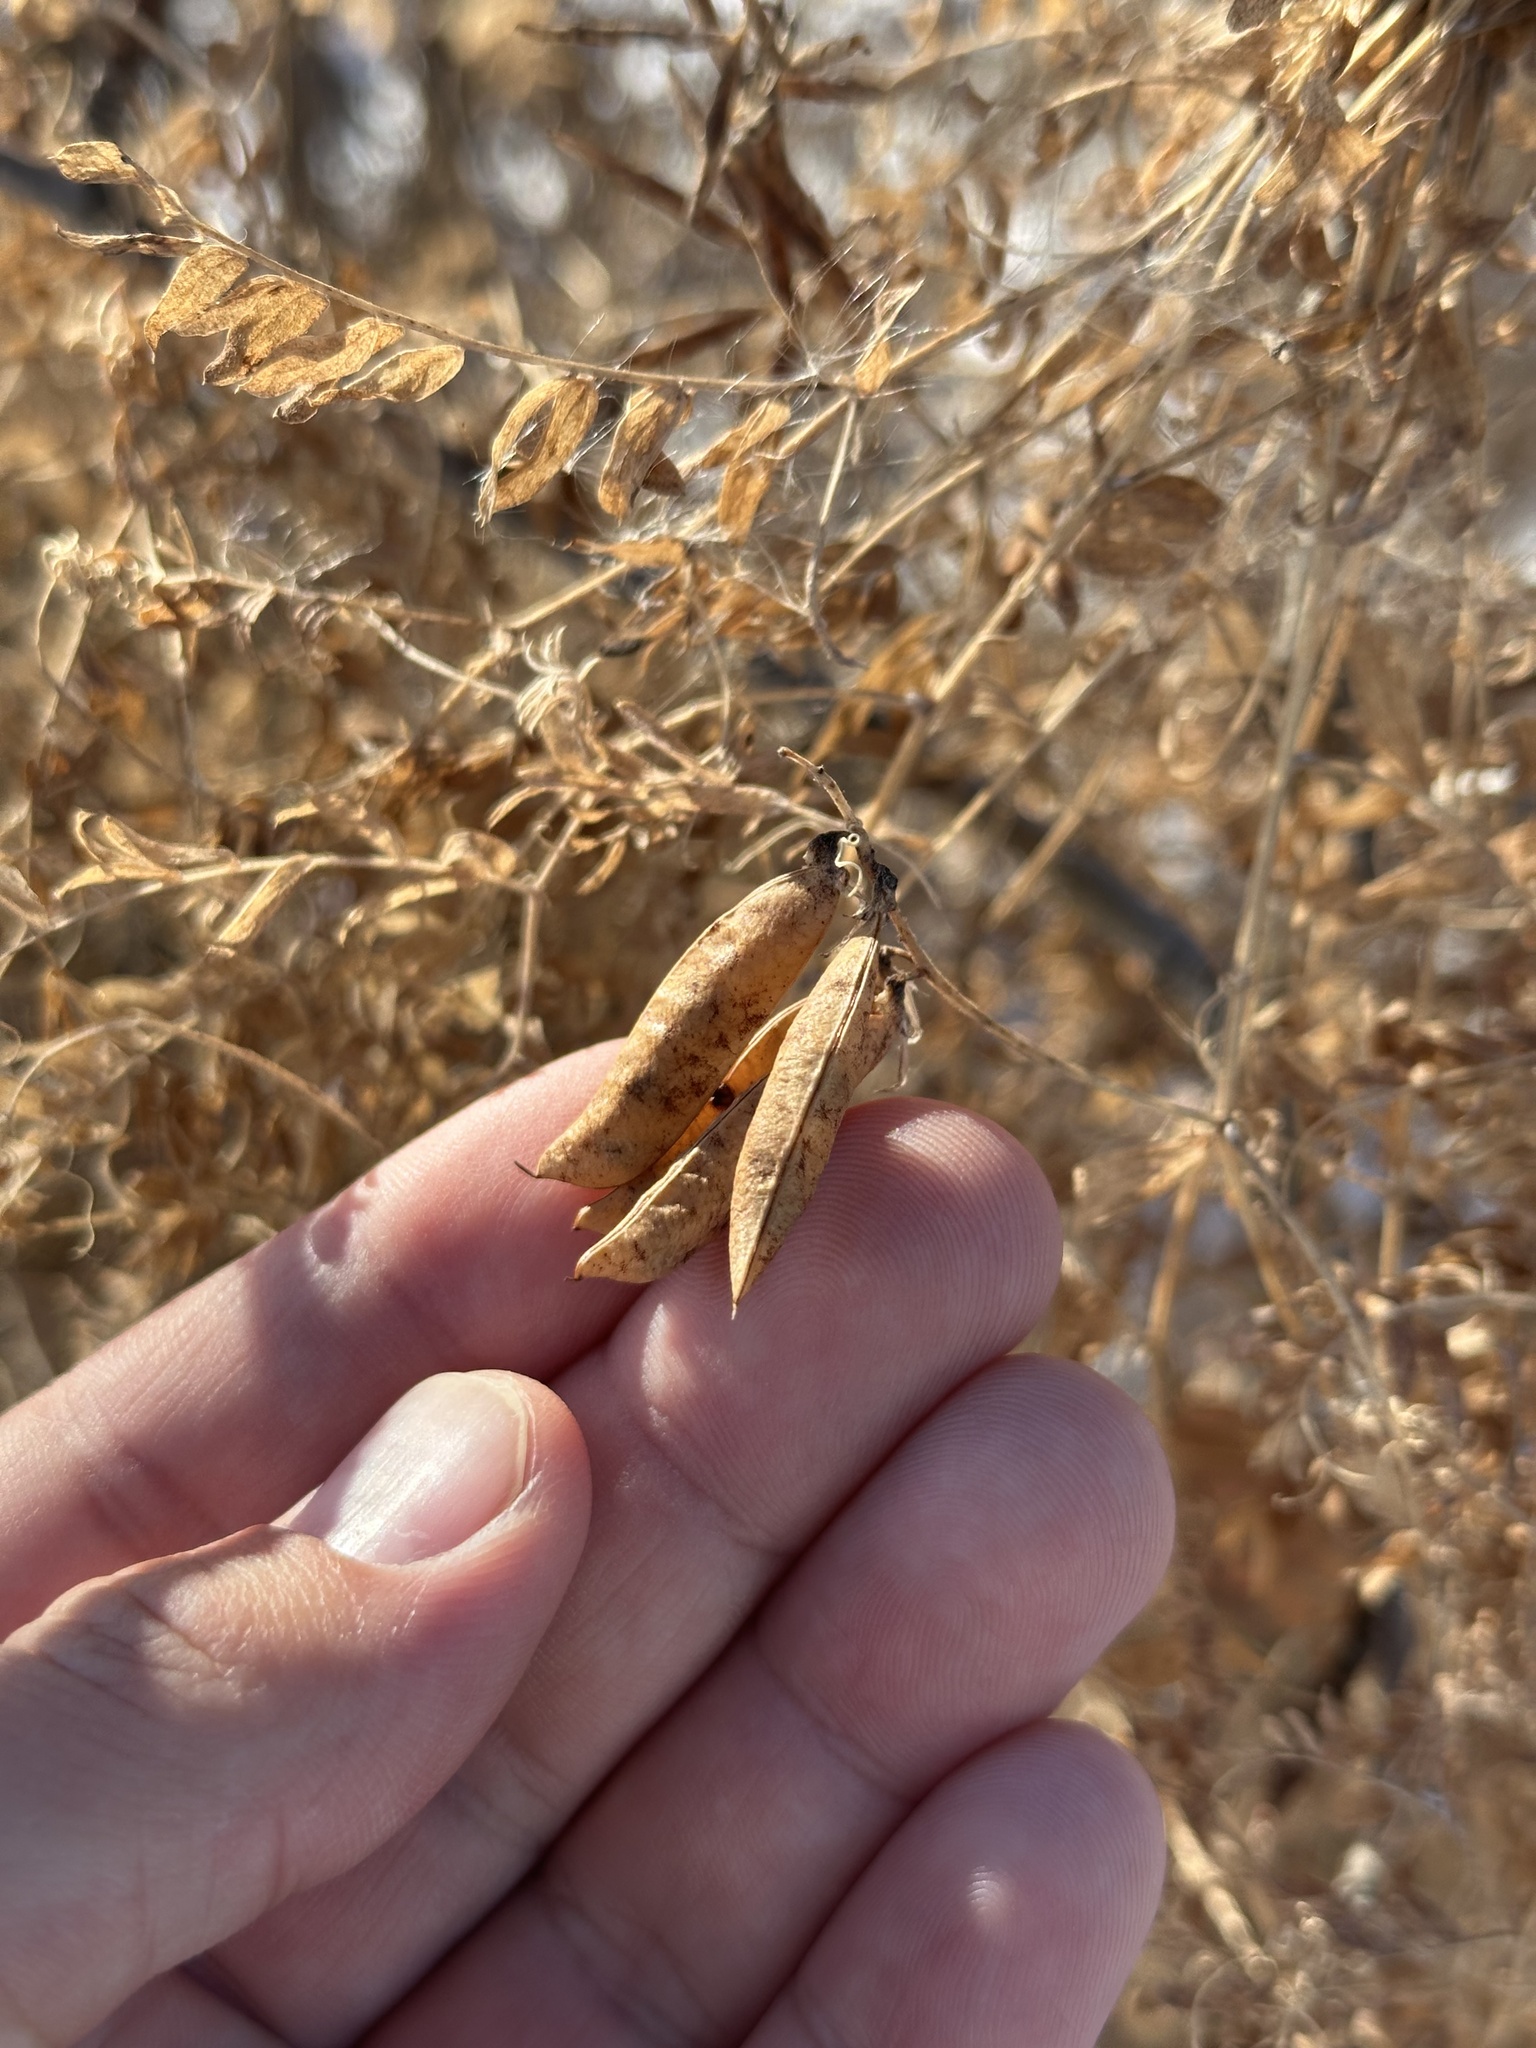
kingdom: Plantae
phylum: Tracheophyta
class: Magnoliopsida
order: Fabales
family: Fabaceae
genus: Vicia
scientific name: Vicia cracca
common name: Bird vetch
